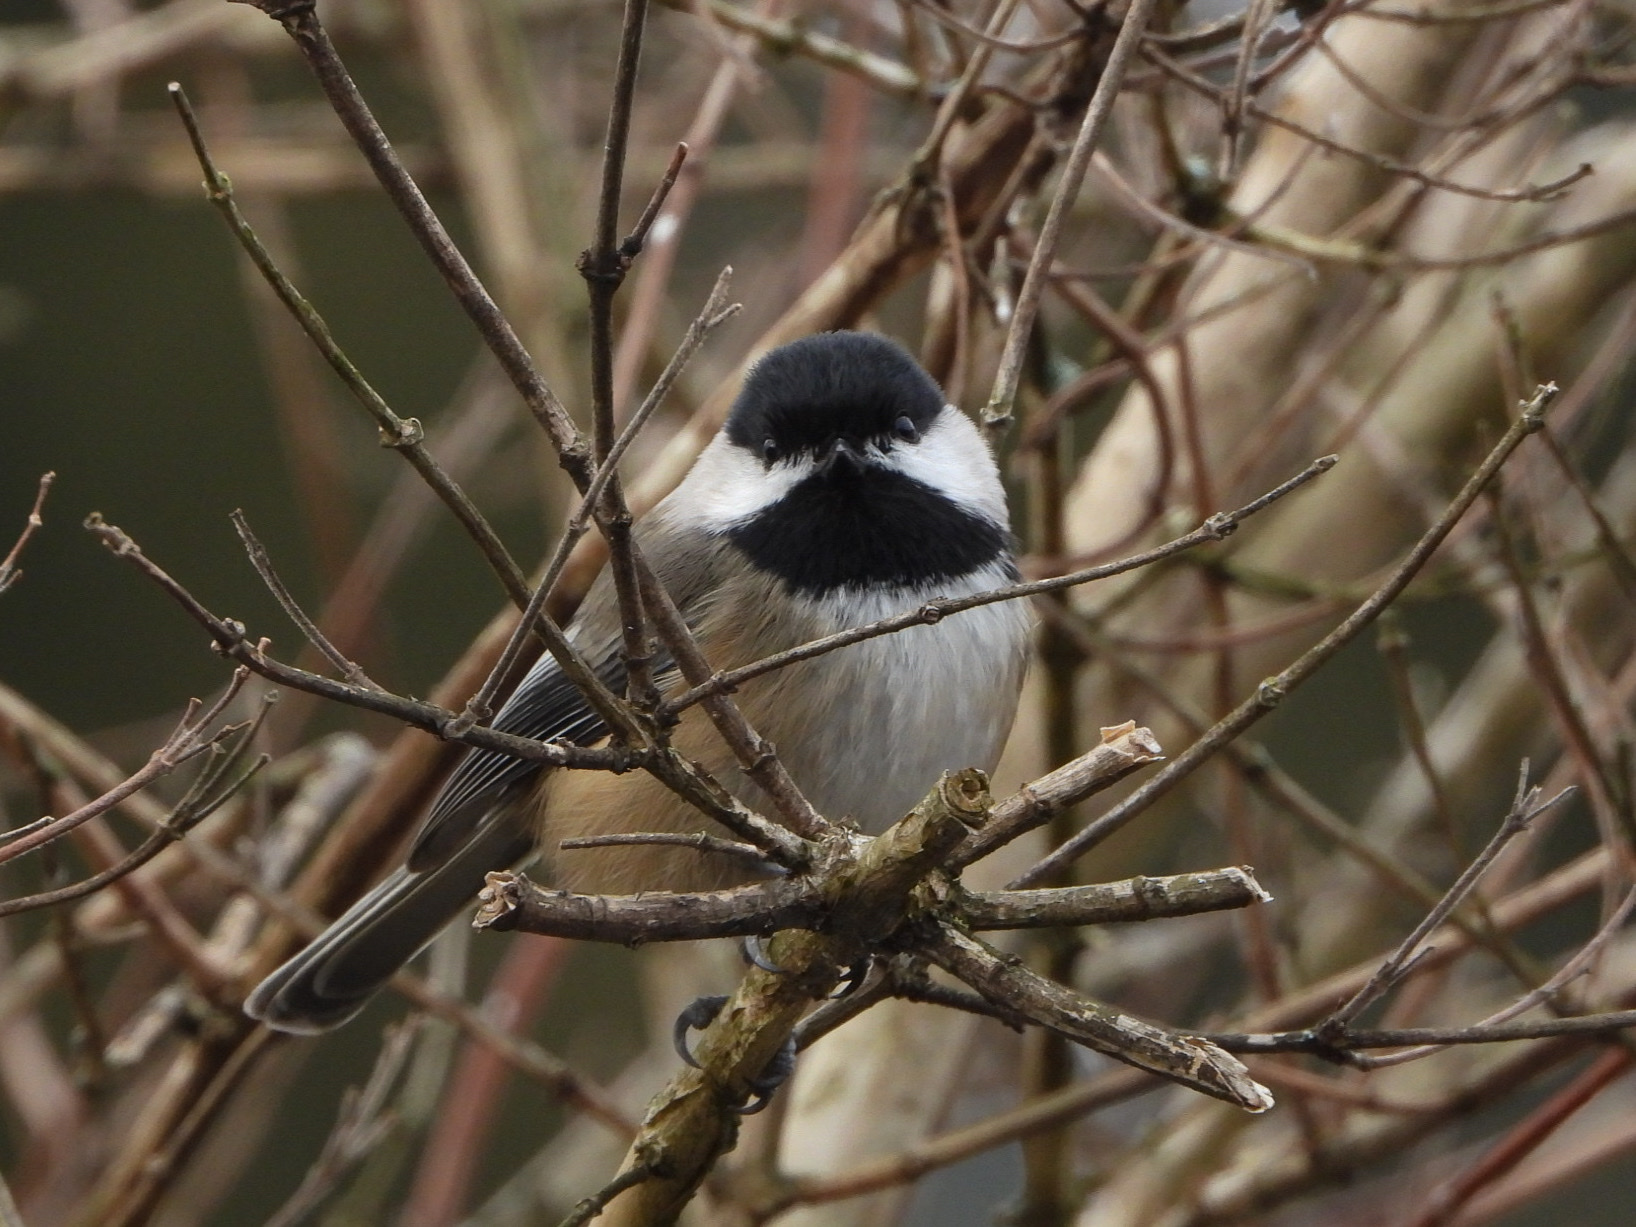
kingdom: Animalia
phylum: Chordata
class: Aves
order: Passeriformes
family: Paridae
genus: Poecile
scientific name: Poecile atricapillus
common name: Black-capped chickadee
